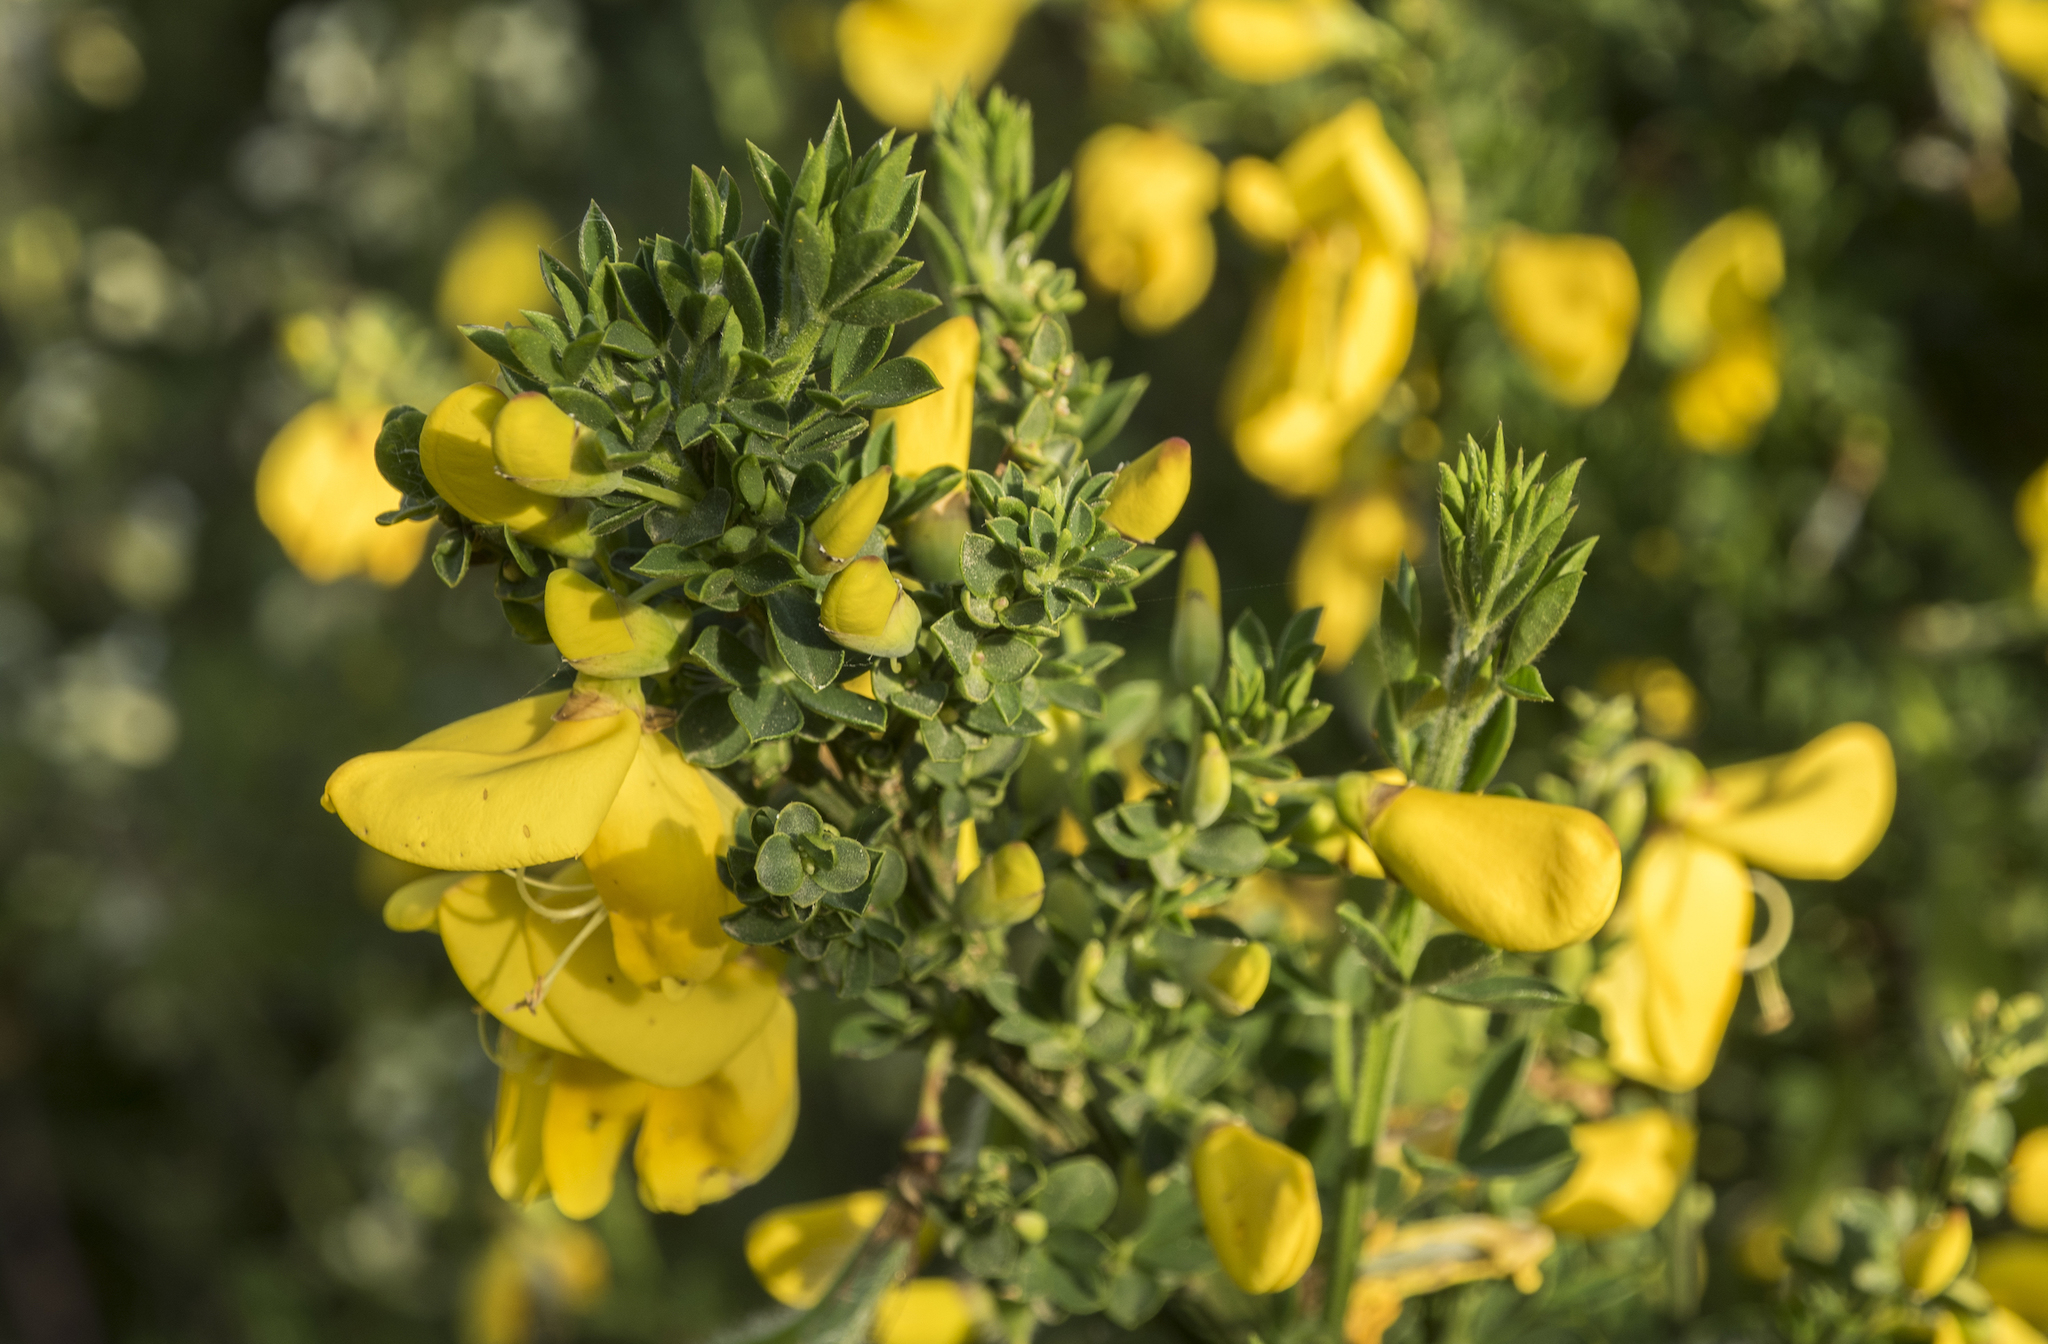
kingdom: Plantae
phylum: Tracheophyta
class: Magnoliopsida
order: Fabales
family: Fabaceae
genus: Cytisus
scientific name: Cytisus scoparius
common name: Scotch broom
